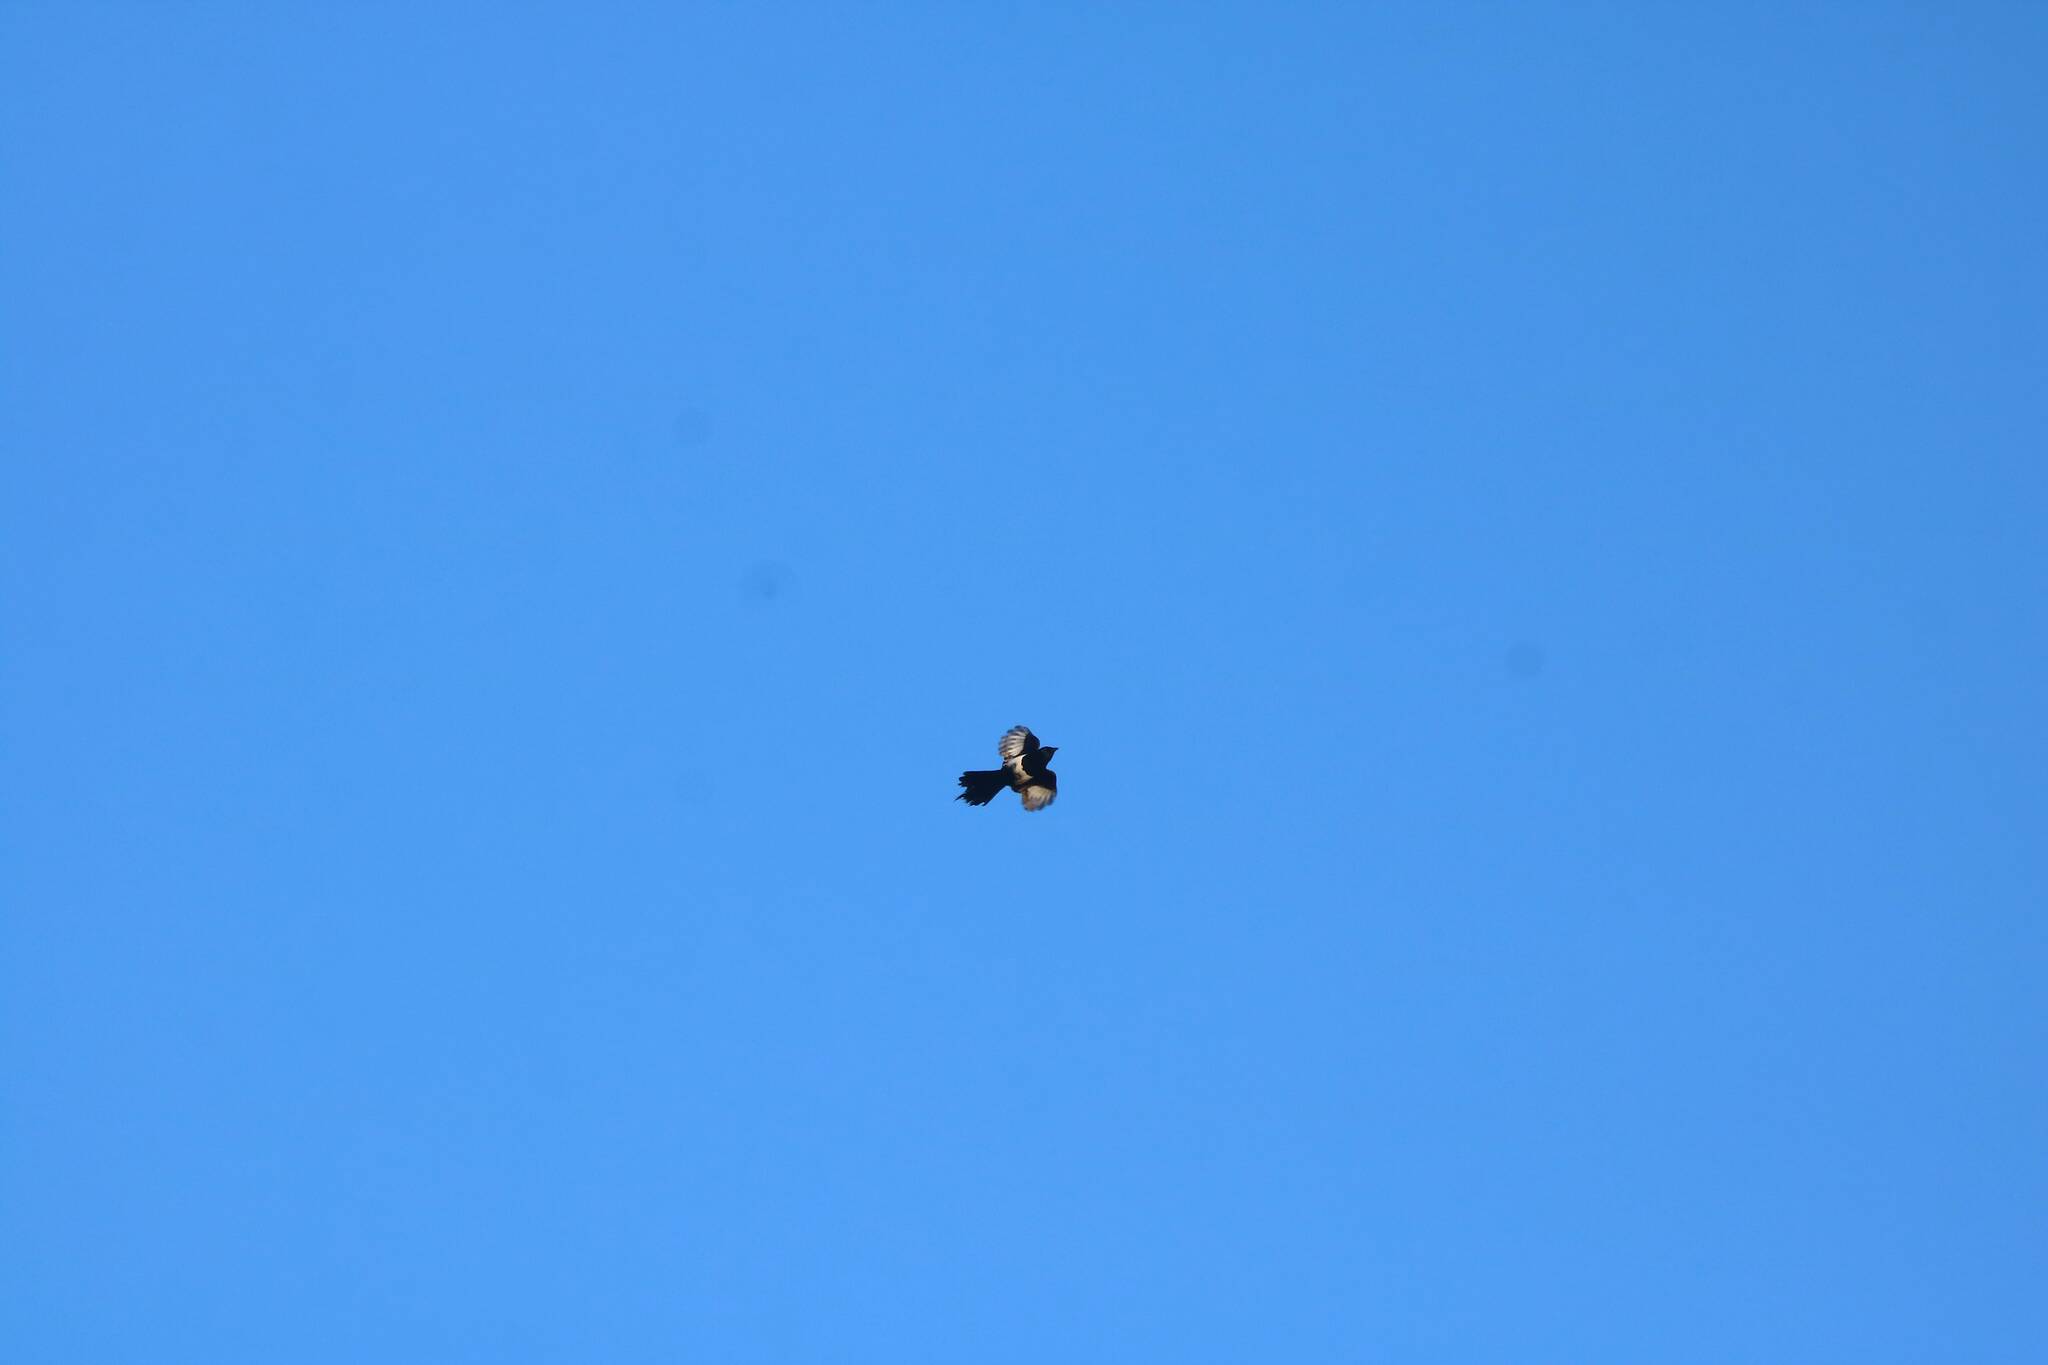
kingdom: Animalia
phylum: Chordata
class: Aves
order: Passeriformes
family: Corvidae
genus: Pica
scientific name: Pica mauritanica
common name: Maghreb magpie
